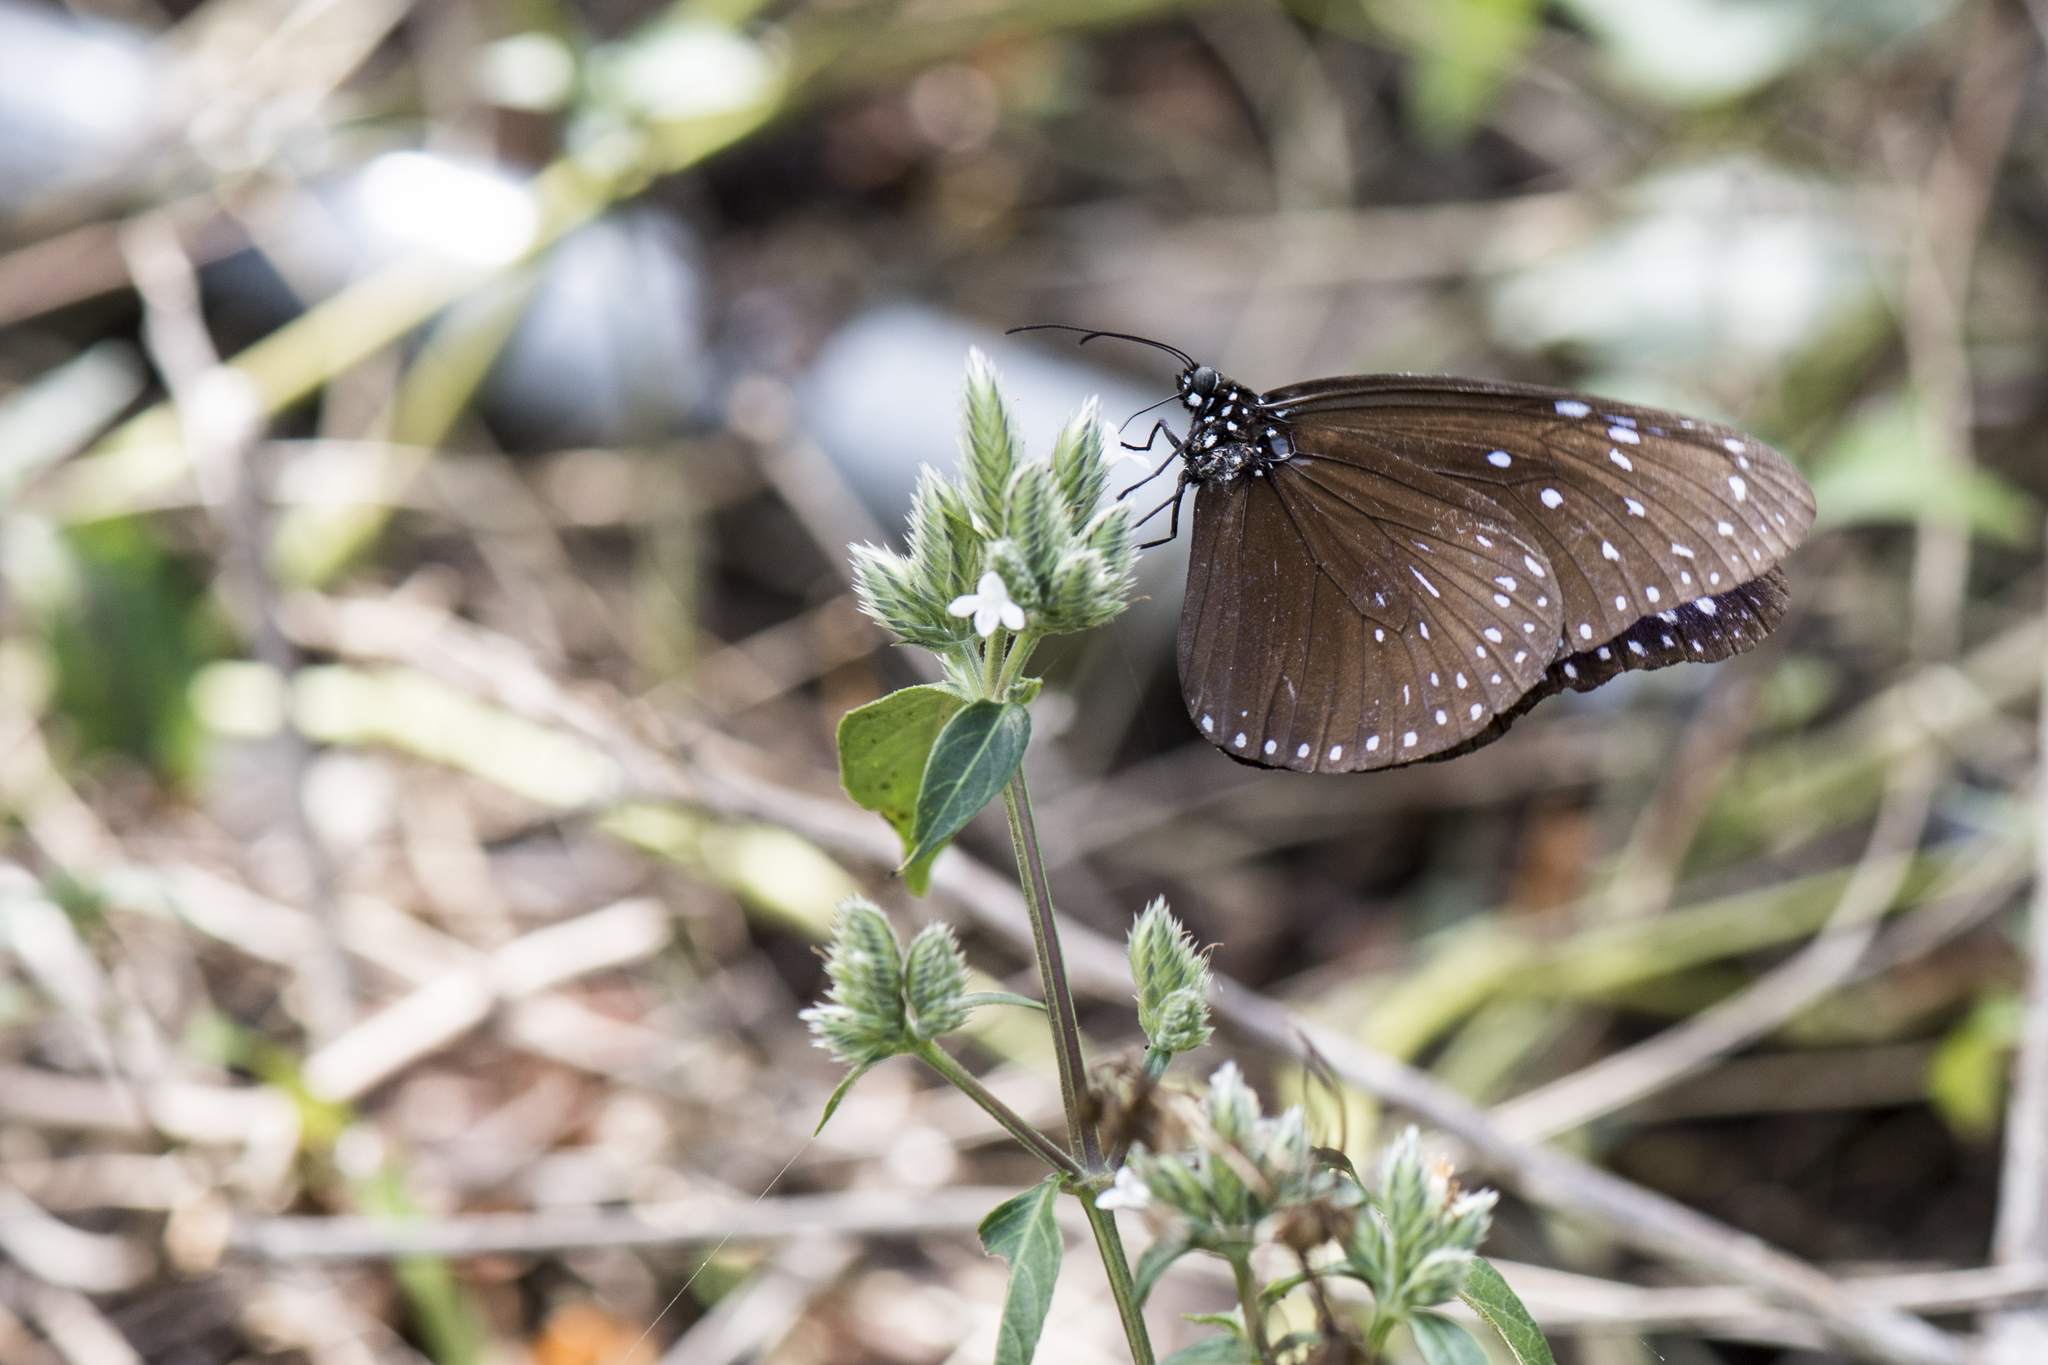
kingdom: Animalia
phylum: Arthropoda
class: Insecta
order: Lepidoptera
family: Nymphalidae
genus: Euploea
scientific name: Euploea mulciber
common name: Striped blue crow butterfly
